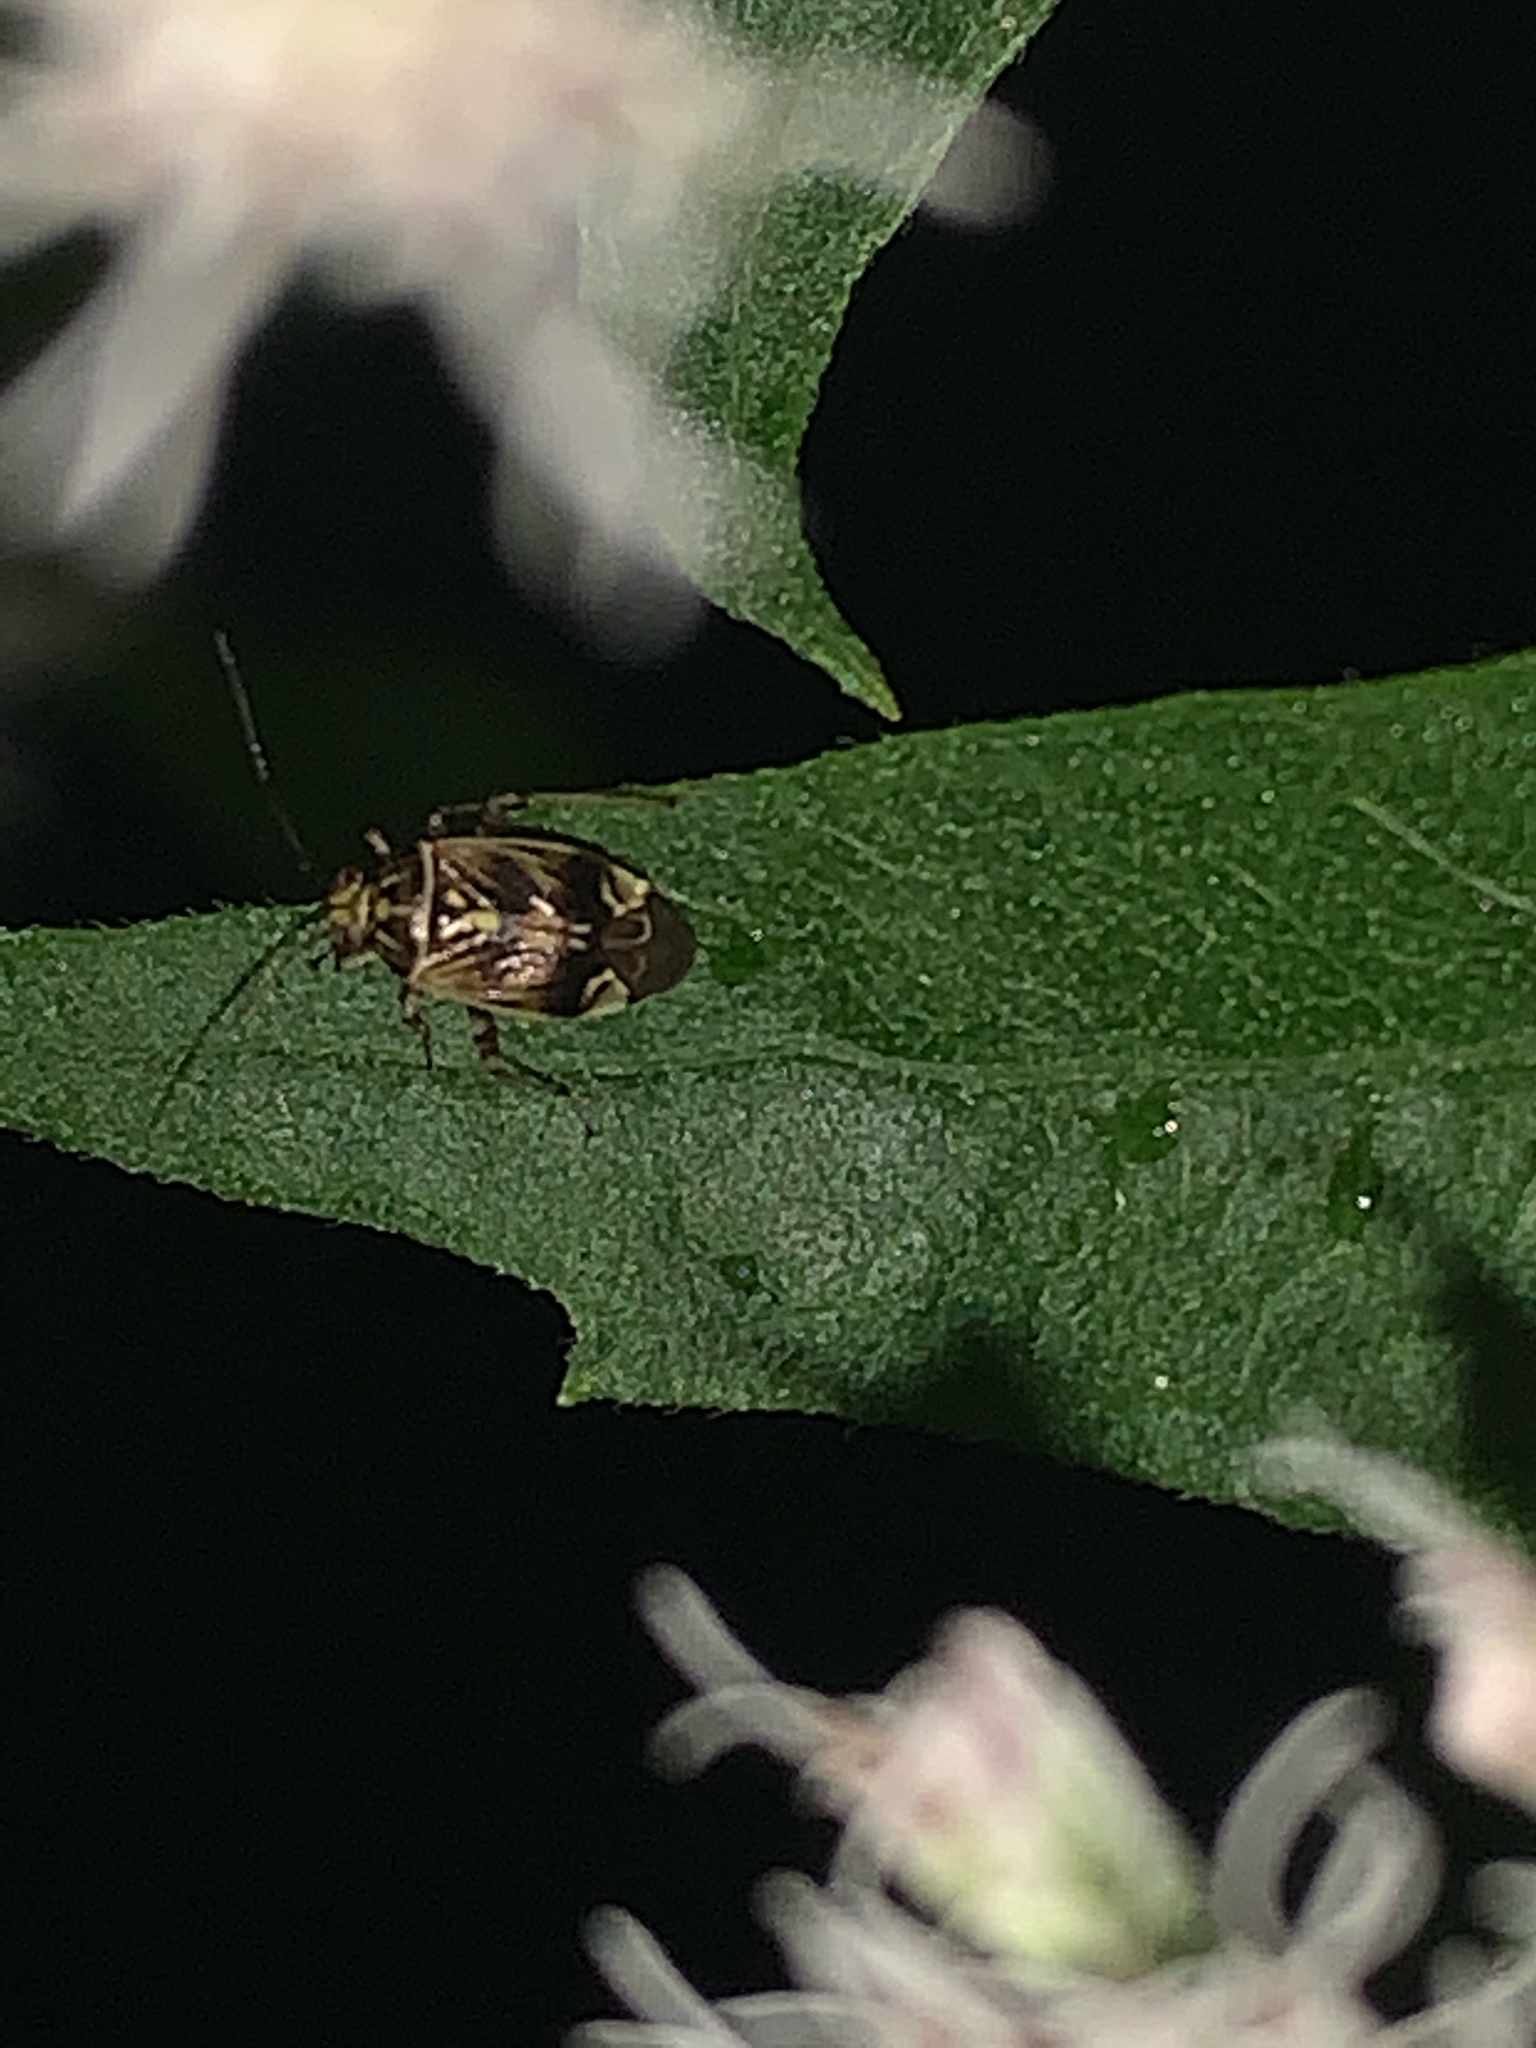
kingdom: Animalia
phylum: Arthropoda
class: Insecta
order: Hemiptera
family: Miridae
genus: Lygus
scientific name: Lygus lineolaris
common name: North american tarnished plant bug
